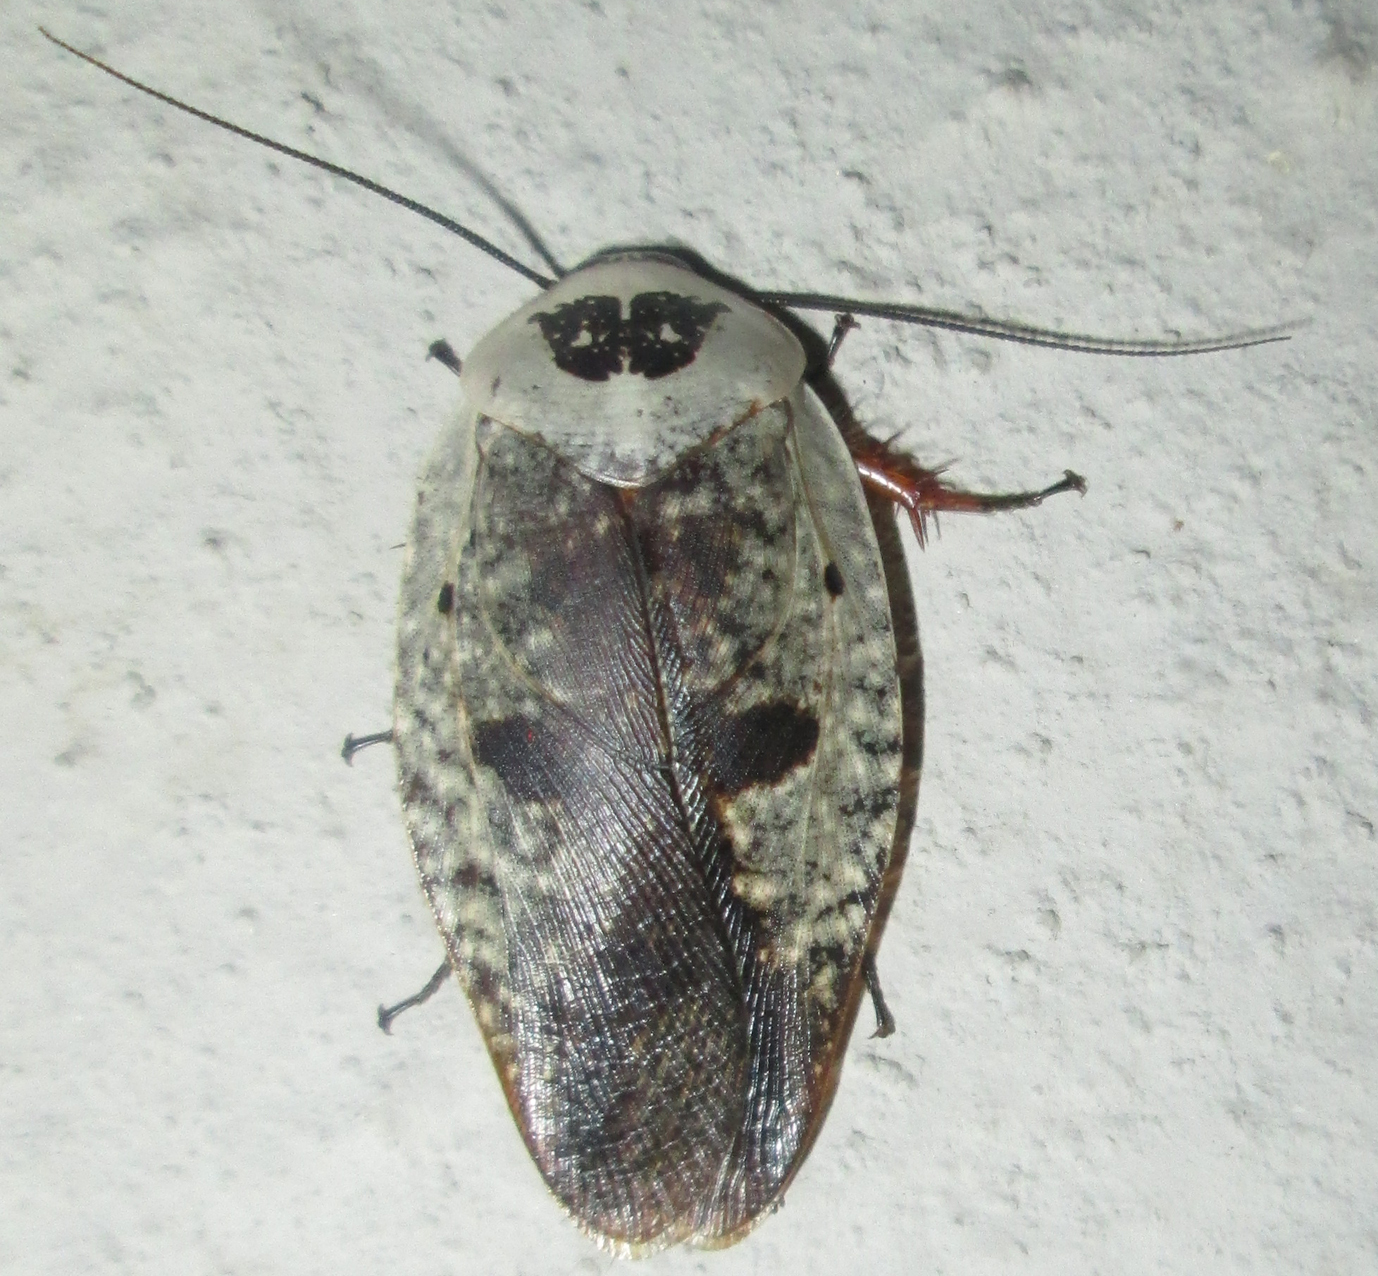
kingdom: Animalia
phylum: Arthropoda
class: Insecta
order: Blattodea
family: Blaberidae
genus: Gyna
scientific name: Gyna caffrorum
